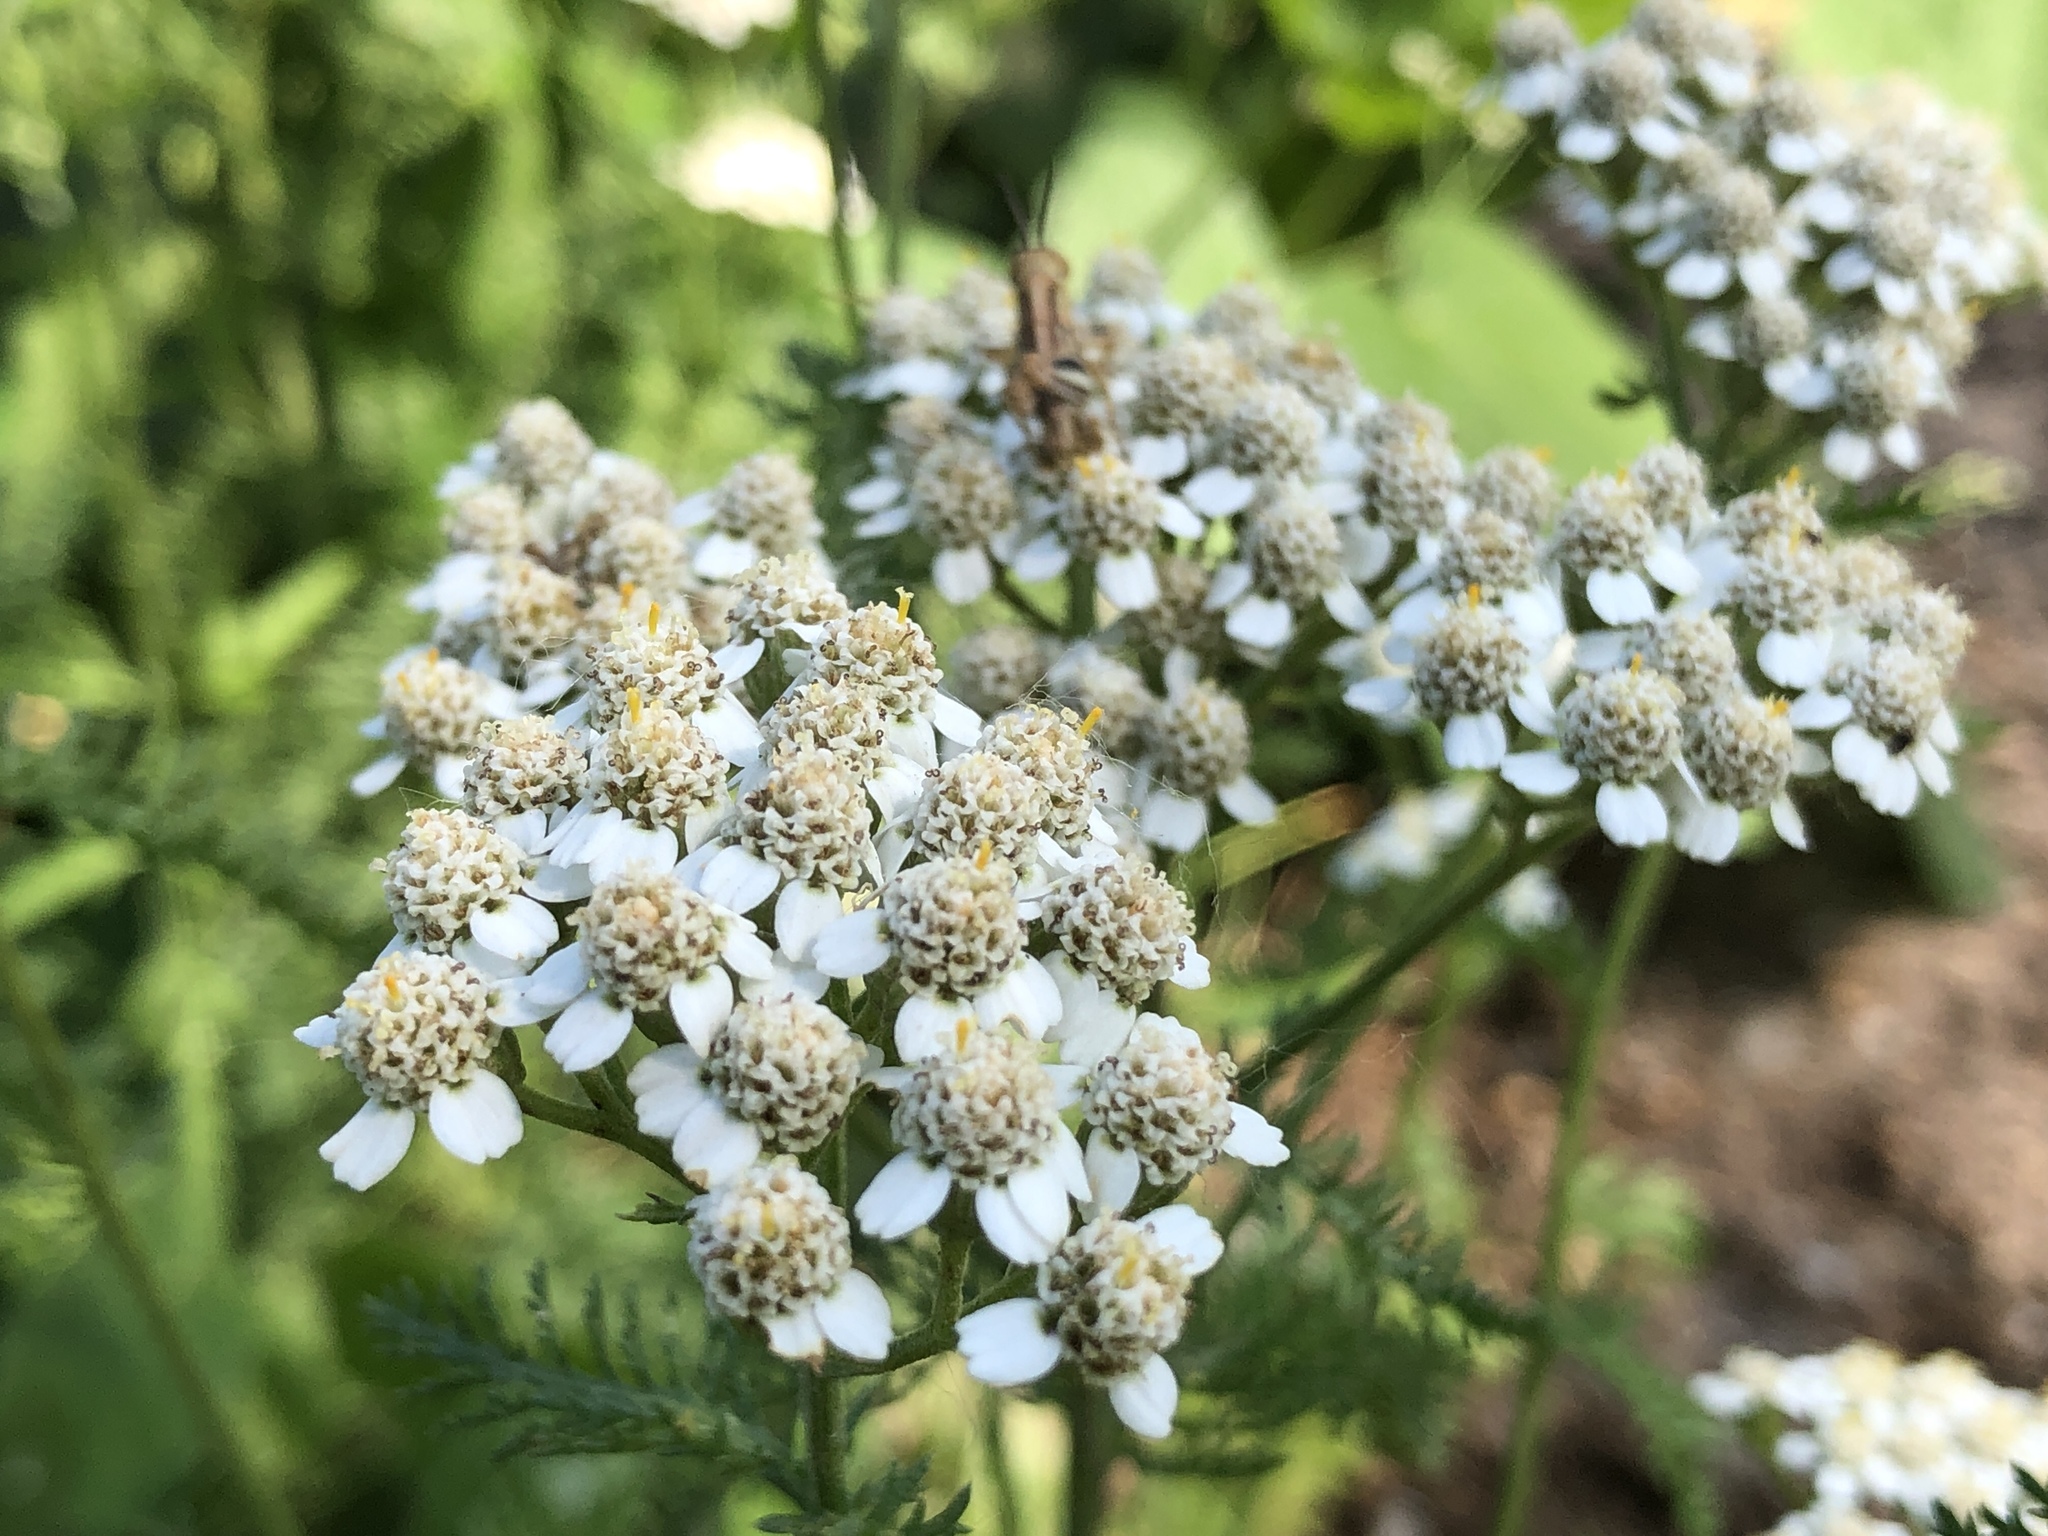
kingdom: Plantae
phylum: Tracheophyta
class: Magnoliopsida
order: Asterales
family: Asteraceae
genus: Achillea
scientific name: Achillea millefolium
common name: Yarrow
